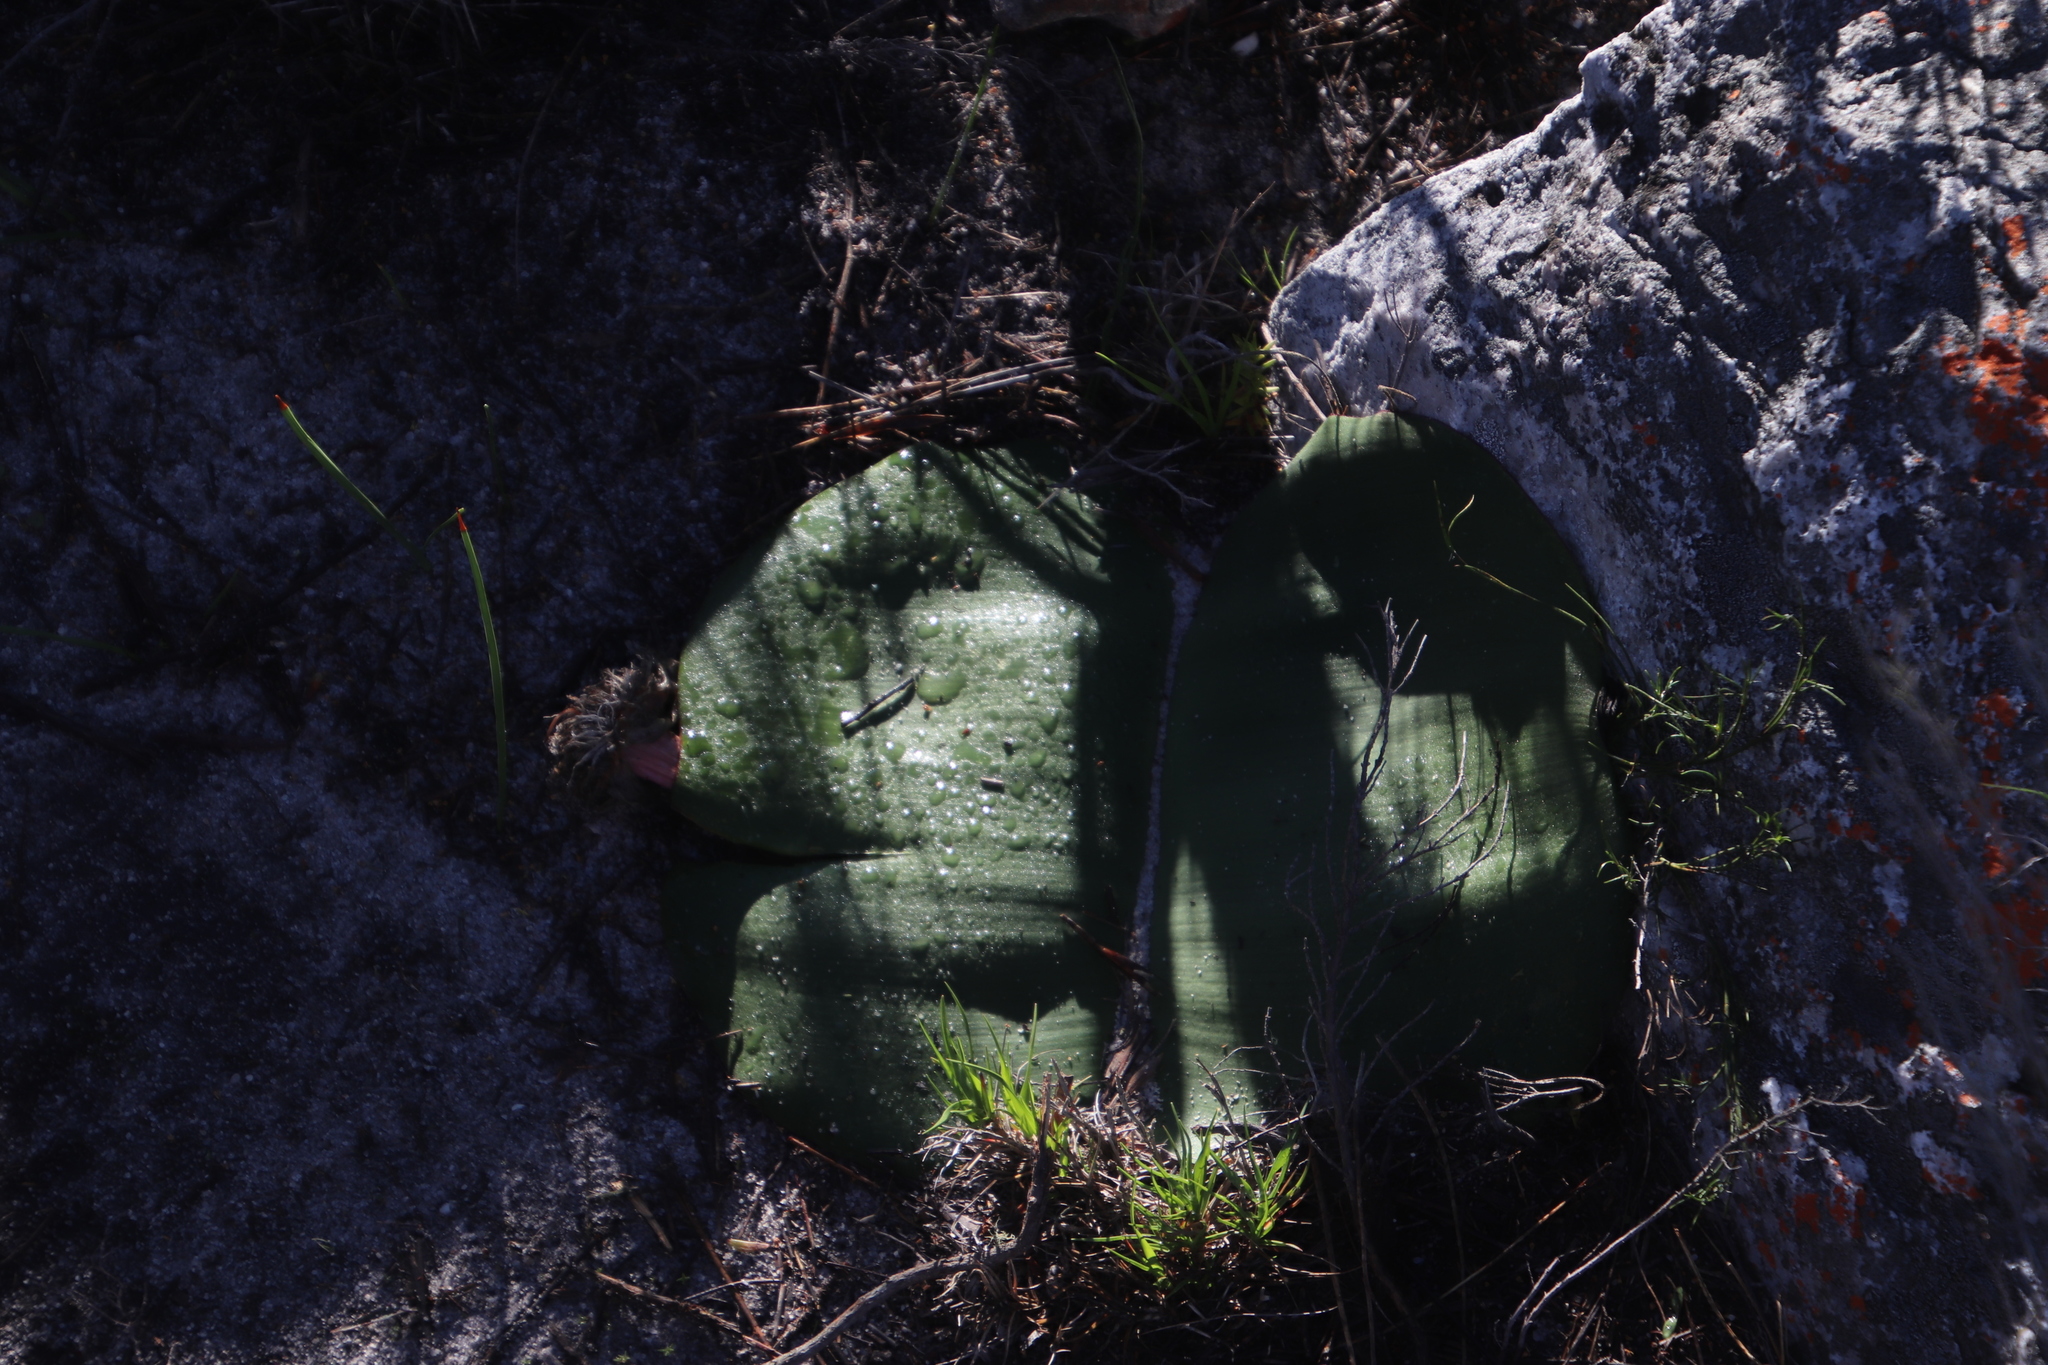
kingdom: Plantae
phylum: Tracheophyta
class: Liliopsida
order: Asparagales
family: Amaryllidaceae
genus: Haemanthus
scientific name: Haemanthus sanguineus
